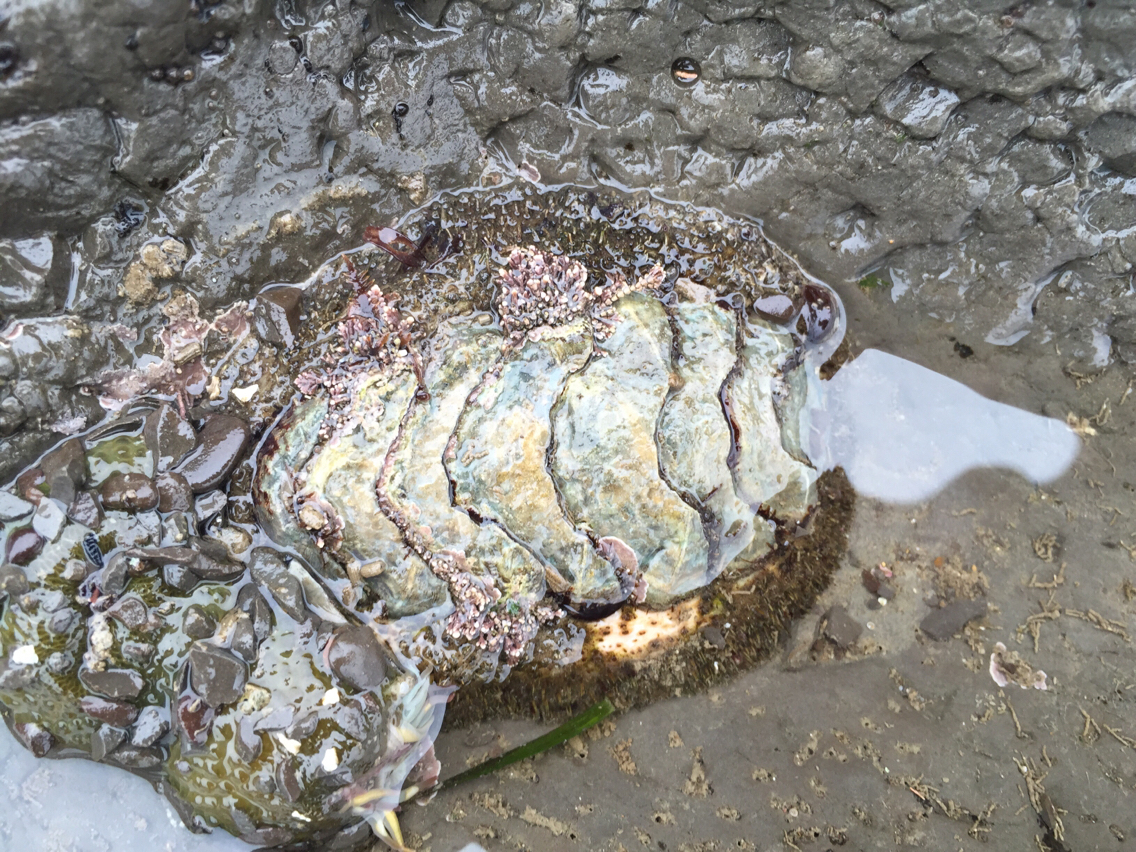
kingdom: Animalia
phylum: Mollusca
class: Polyplacophora
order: Chitonida
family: Mopaliidae
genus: Mopalia
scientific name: Mopalia muscosa
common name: Mossy chiton
